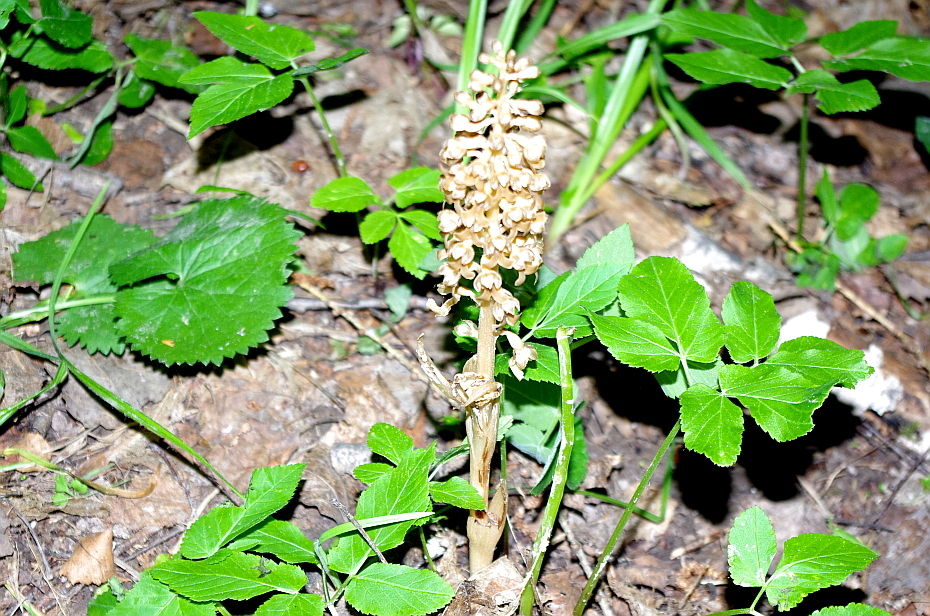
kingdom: Plantae
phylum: Tracheophyta
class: Liliopsida
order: Asparagales
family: Orchidaceae
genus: Neottia
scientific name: Neottia nidus-avis
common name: Bird's-nest orchid
